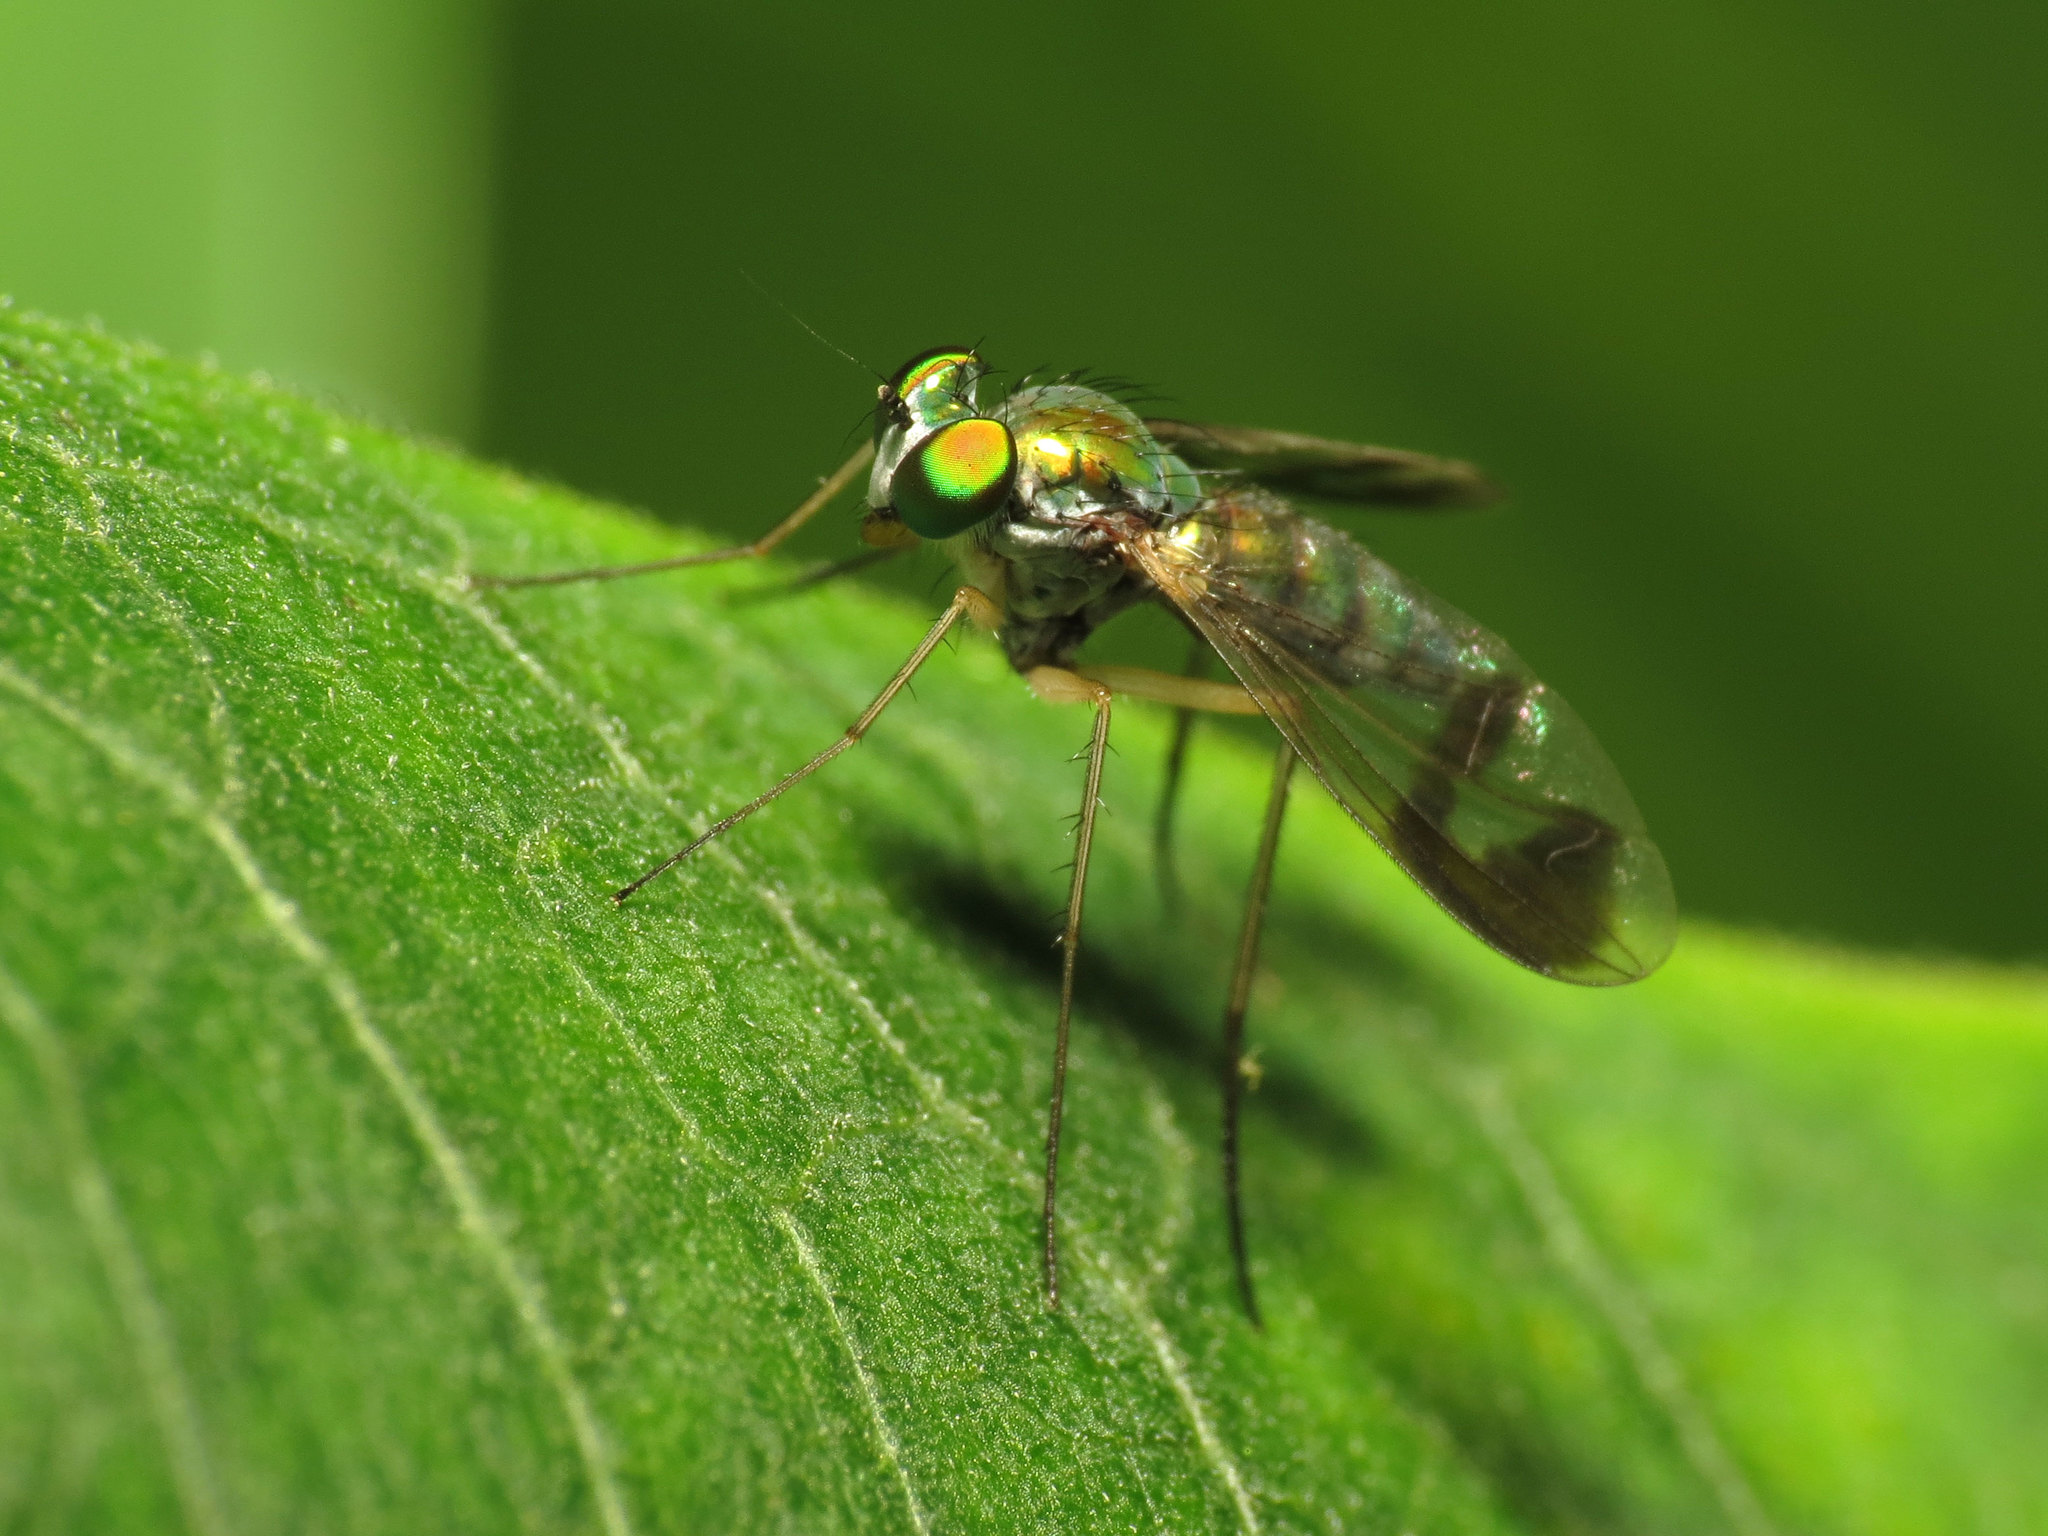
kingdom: Animalia
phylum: Arthropoda
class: Insecta
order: Diptera
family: Dolichopodidae
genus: Condylostylus
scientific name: Condylostylus
